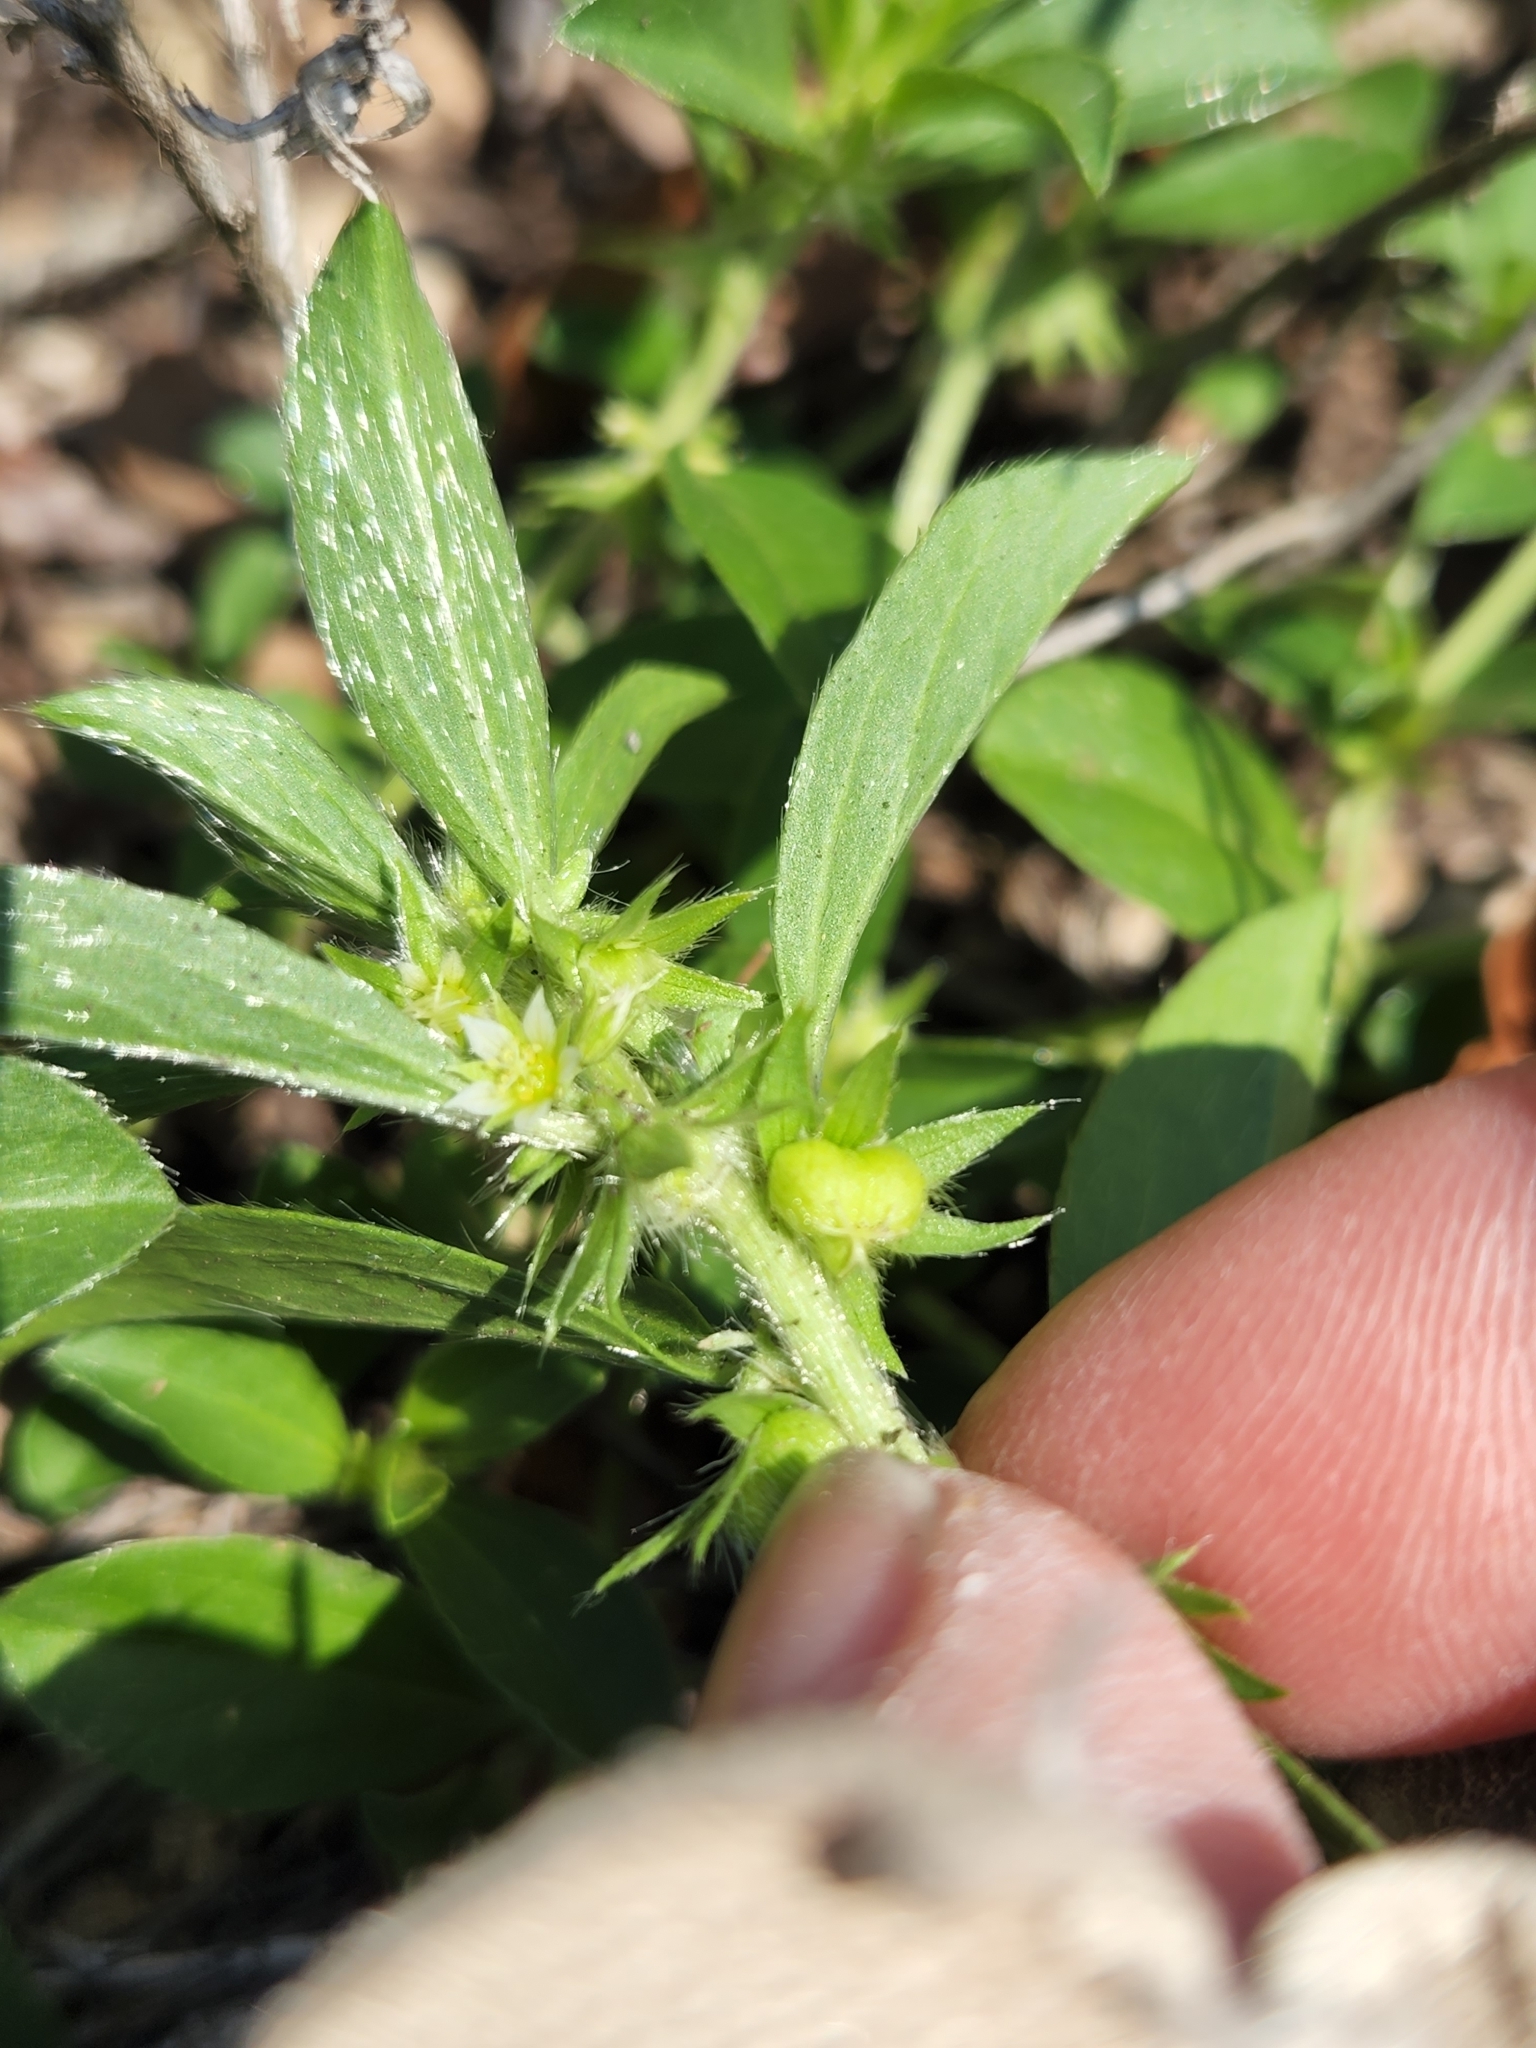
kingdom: Plantae
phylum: Tracheophyta
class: Magnoliopsida
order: Malpighiales
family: Euphorbiaceae
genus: Ditaxis
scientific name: Ditaxis humilis
